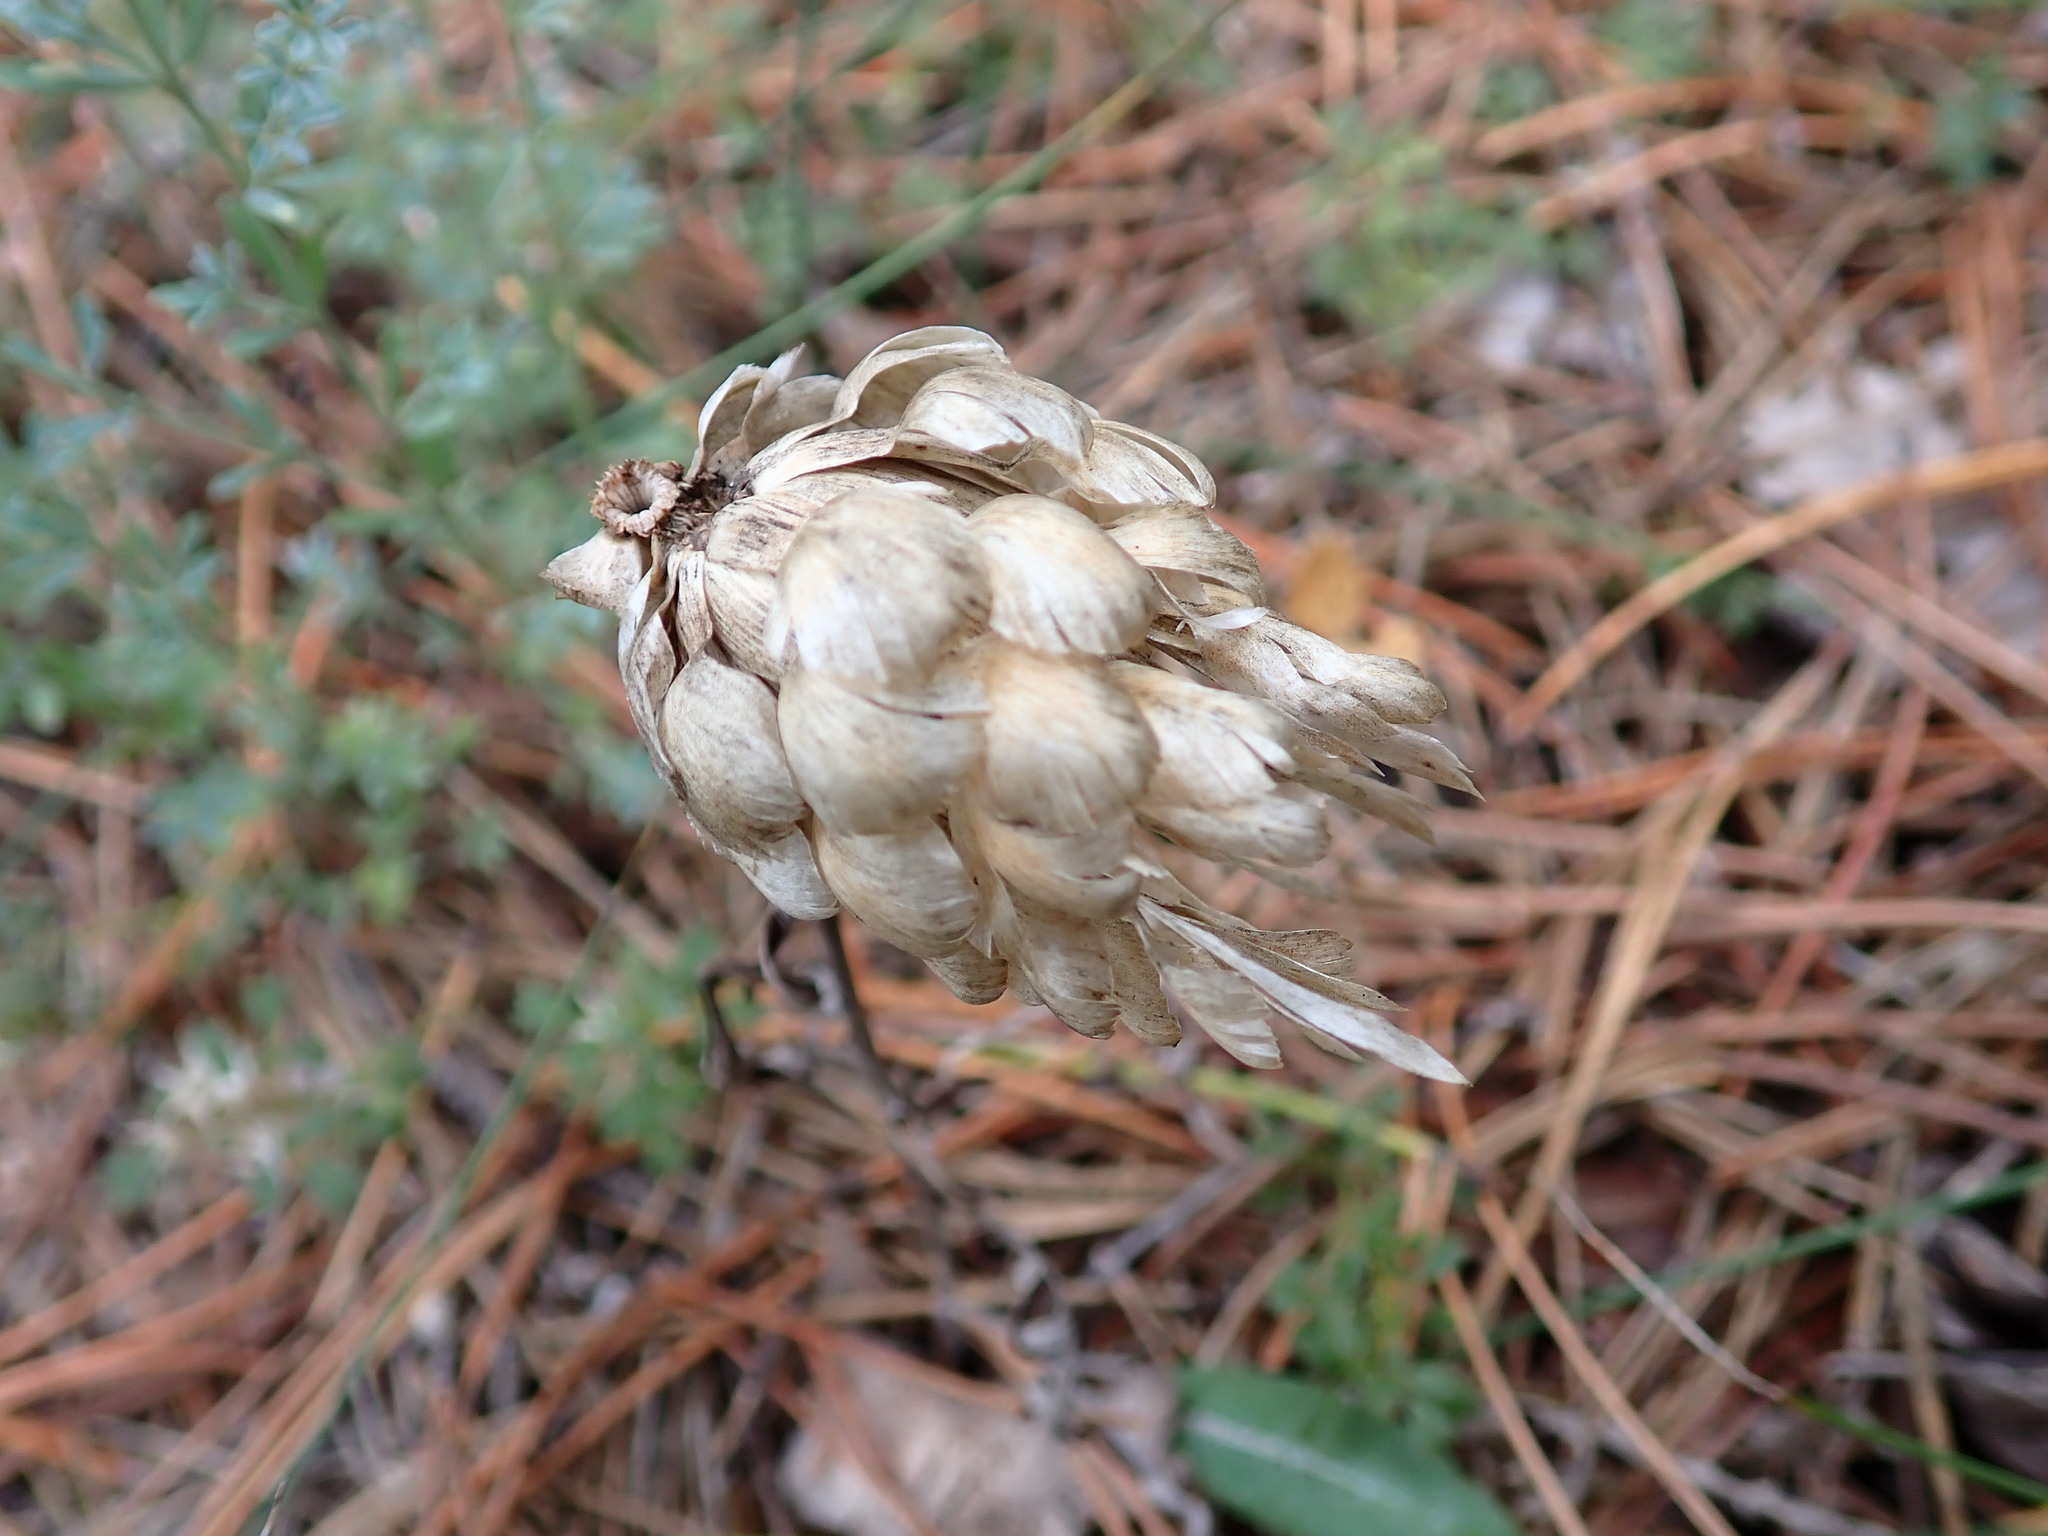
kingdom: Plantae
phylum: Tracheophyta
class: Magnoliopsida
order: Asterales
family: Asteraceae
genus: Catananche
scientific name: Catananche caerulea
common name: Blue cupidone
